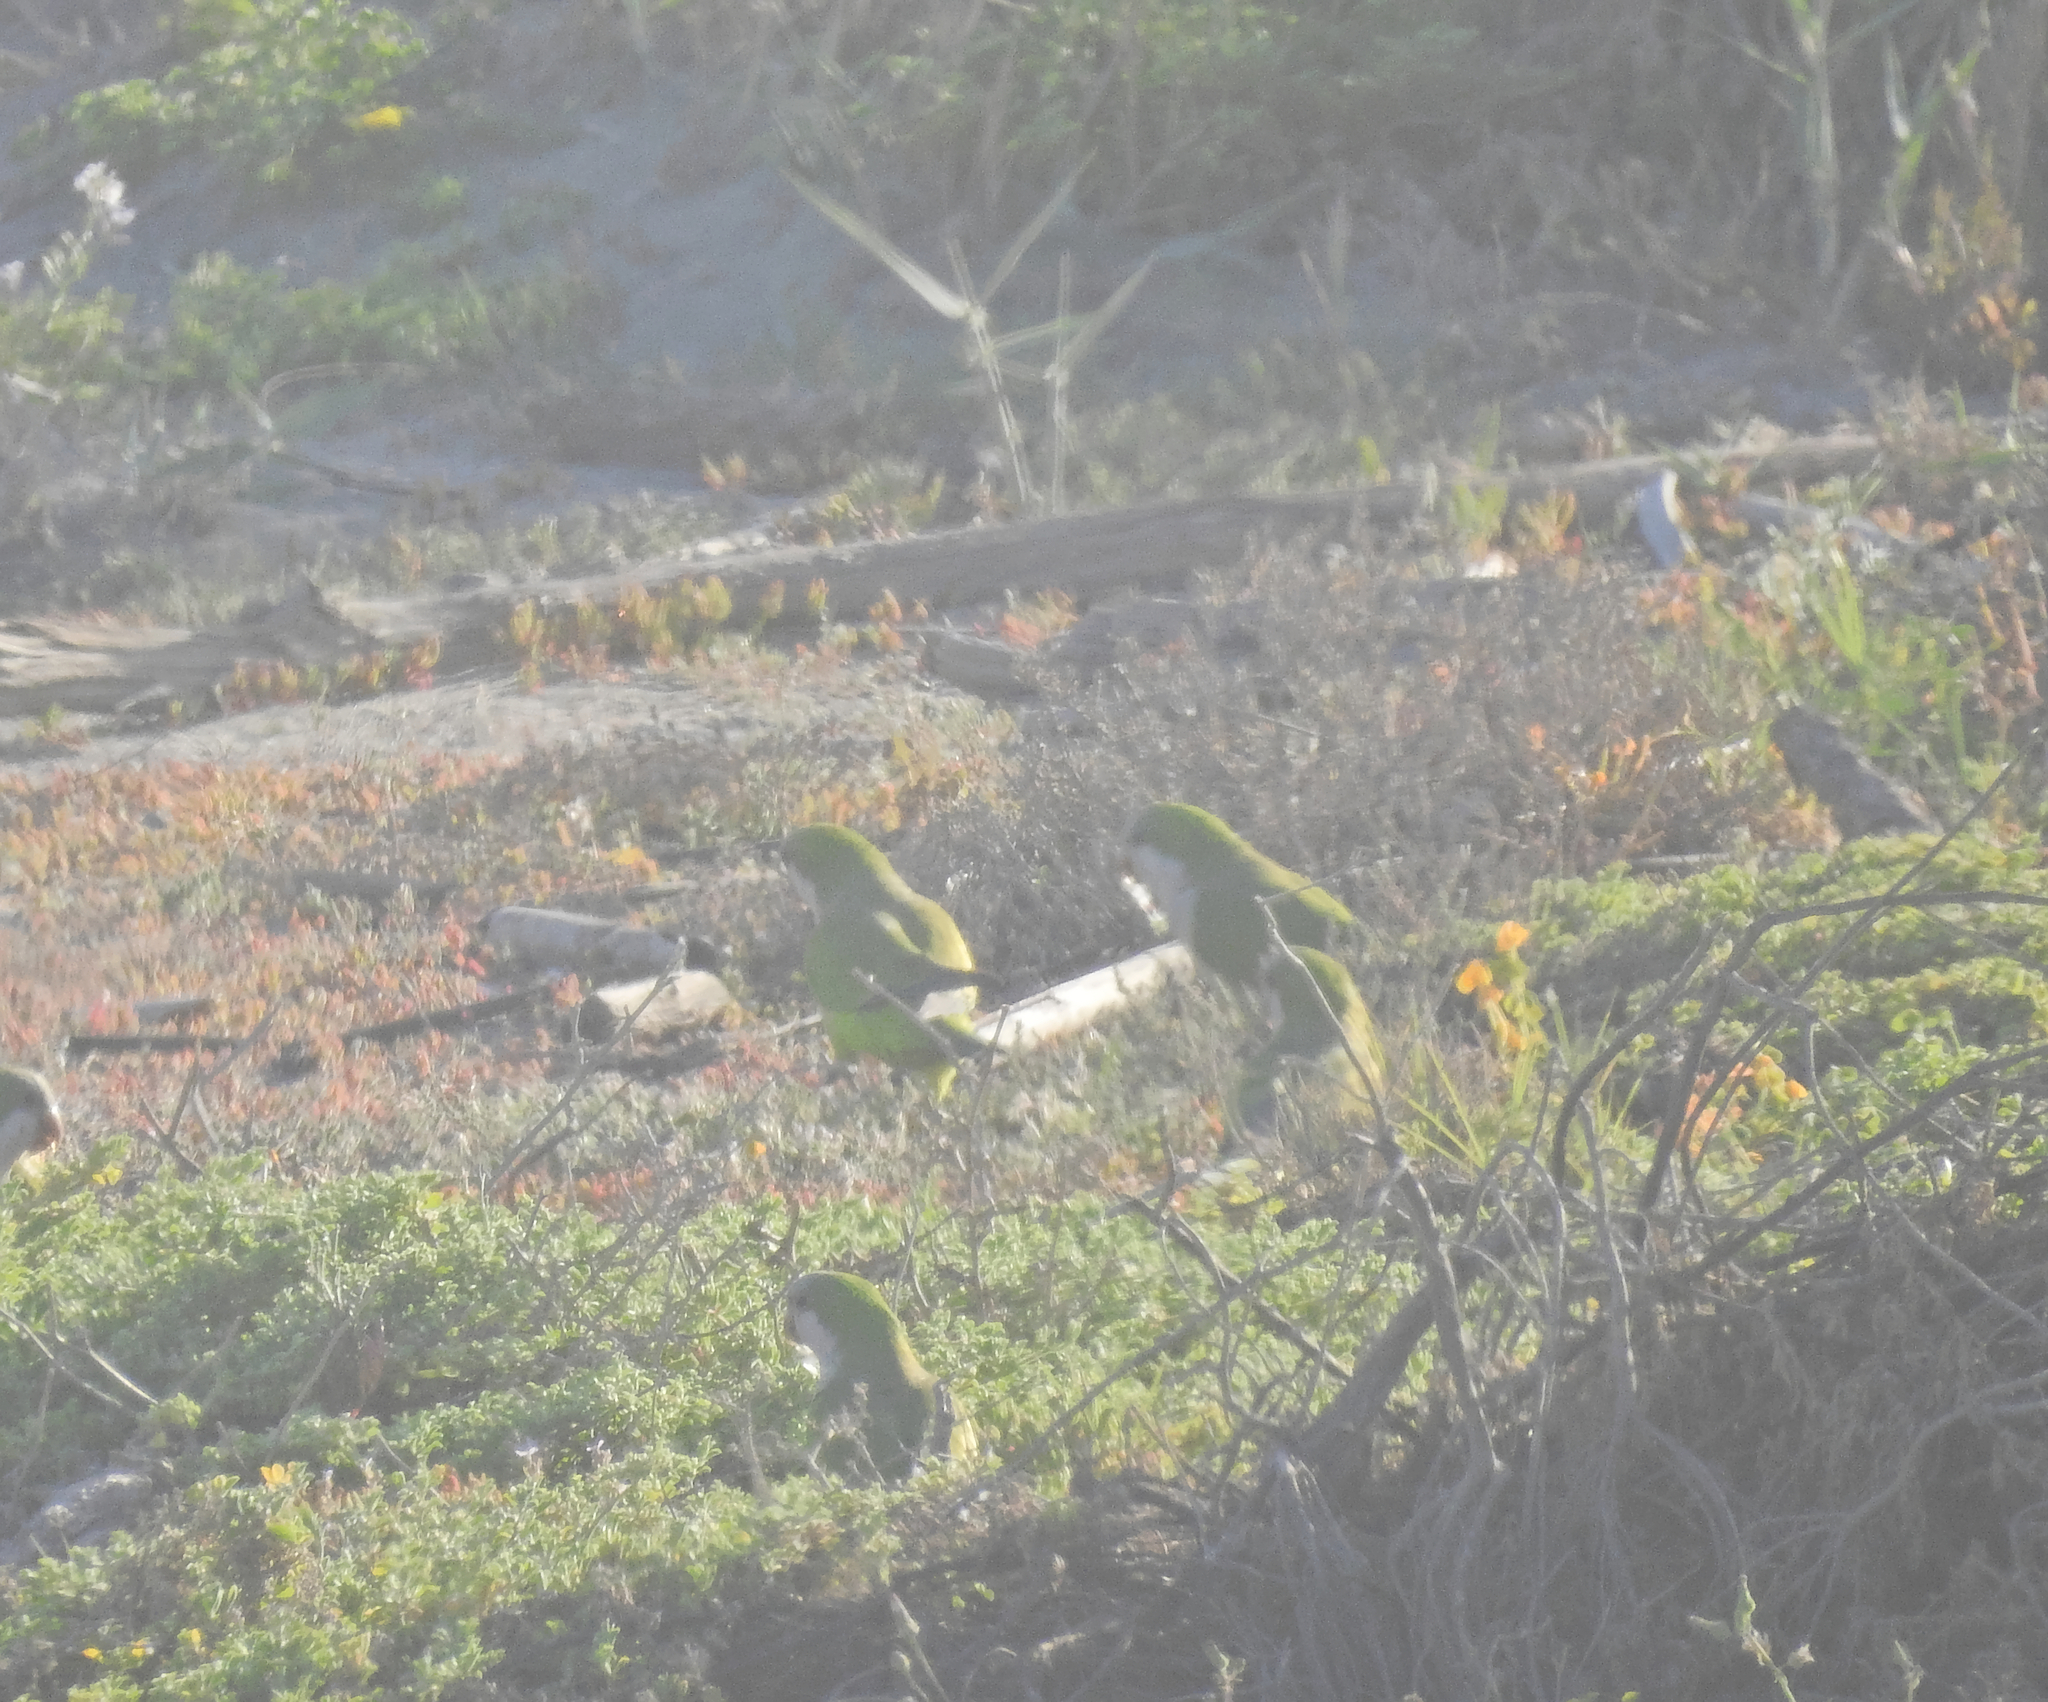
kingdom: Animalia
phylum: Chordata
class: Aves
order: Psittaciformes
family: Psittacidae
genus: Myiopsitta
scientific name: Myiopsitta monachus
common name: Monk parakeet
